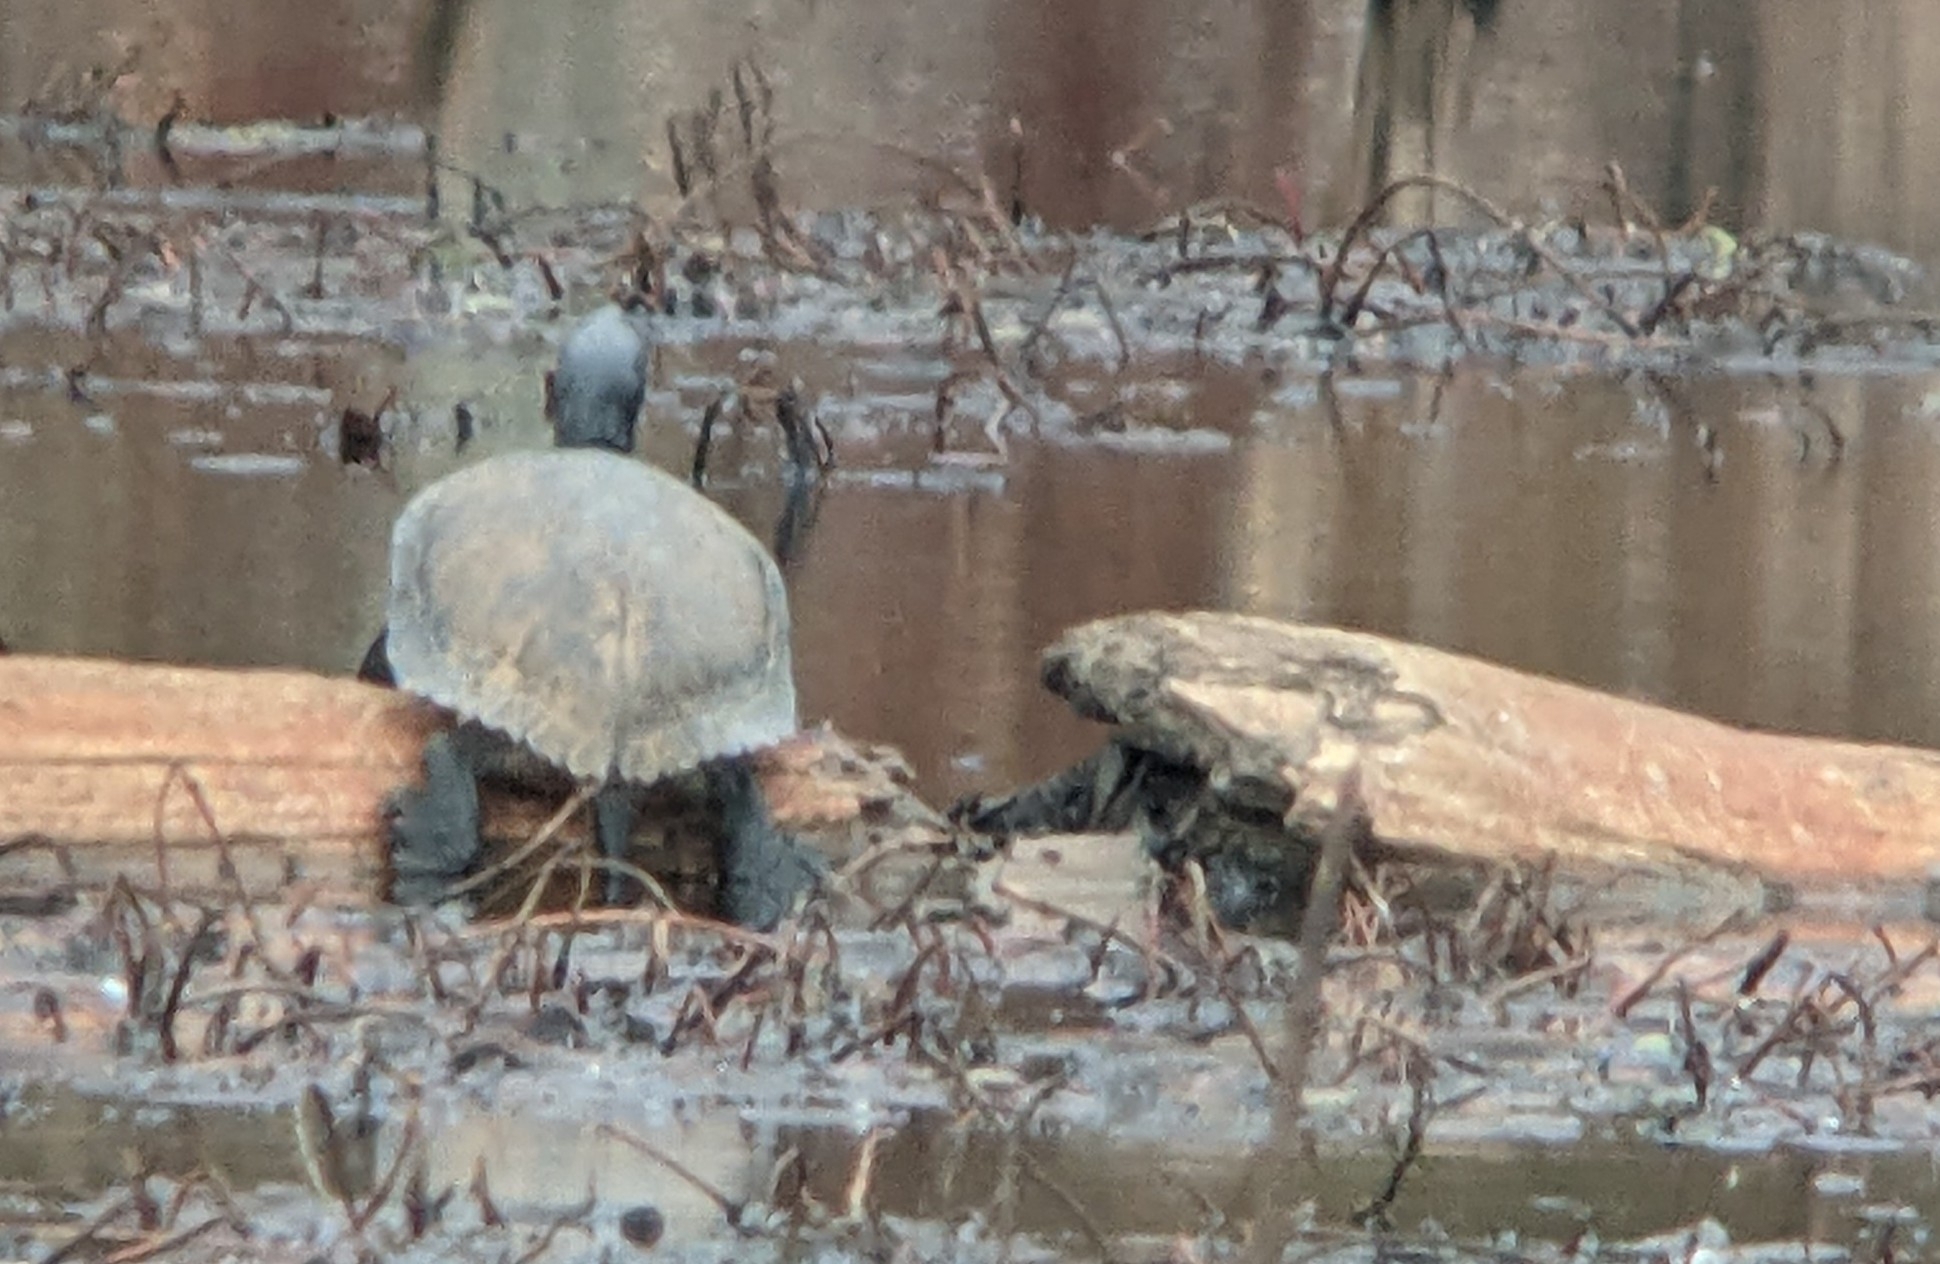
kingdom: Animalia
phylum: Chordata
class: Testudines
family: Emydidae
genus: Trachemys
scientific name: Trachemys scripta
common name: Slider
